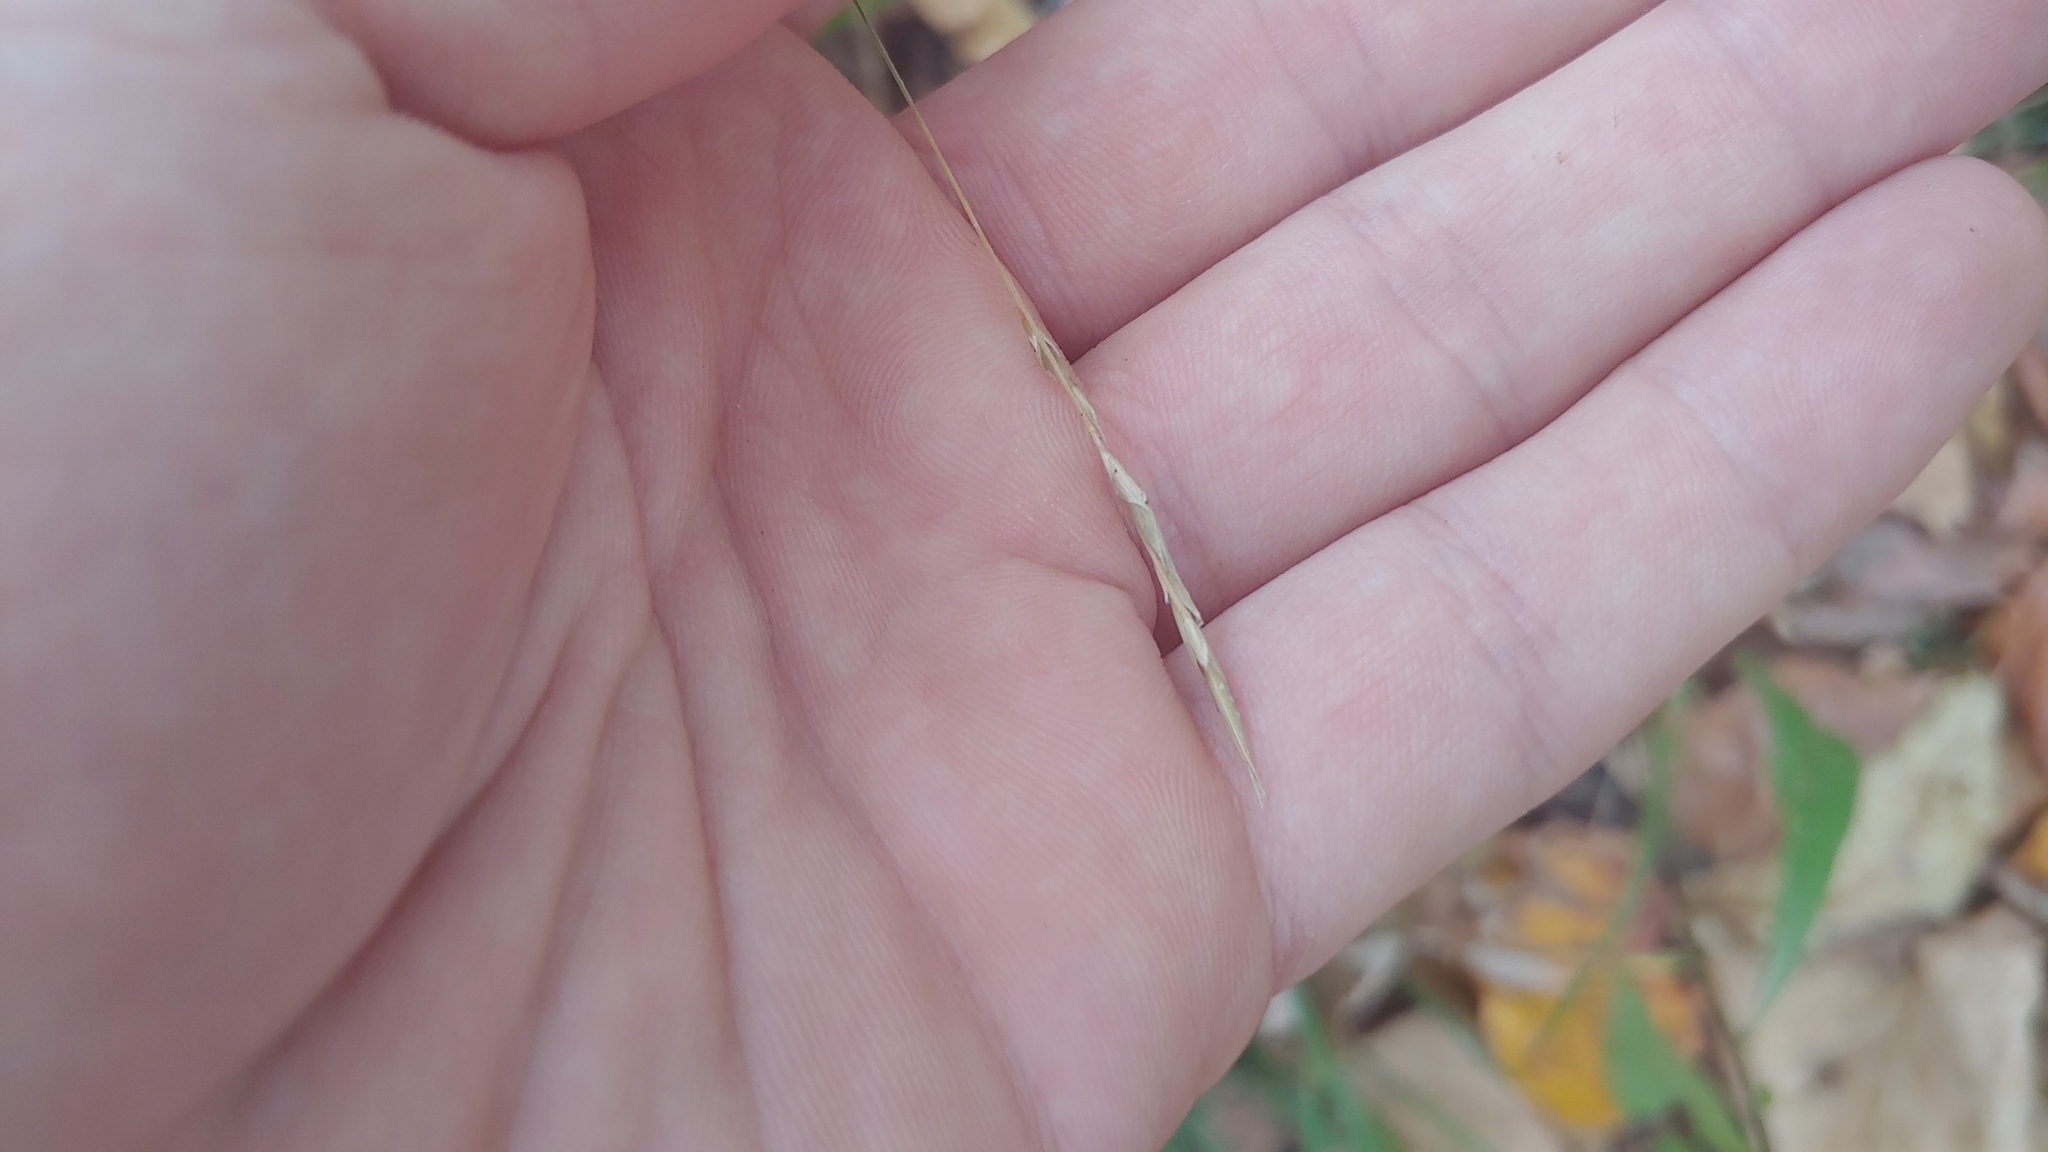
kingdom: Plantae
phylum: Tracheophyta
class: Liliopsida
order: Poales
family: Poaceae
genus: Diarrhena
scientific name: Diarrhena americana
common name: American beakgrain
